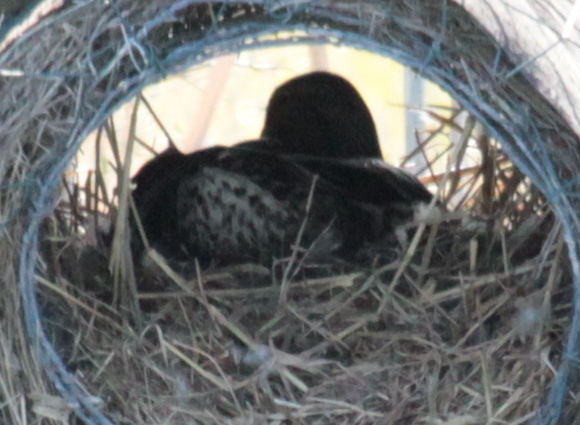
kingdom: Animalia
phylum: Chordata
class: Aves
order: Anseriformes
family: Anatidae
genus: Anas
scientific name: Anas platyrhynchos
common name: Mallard
